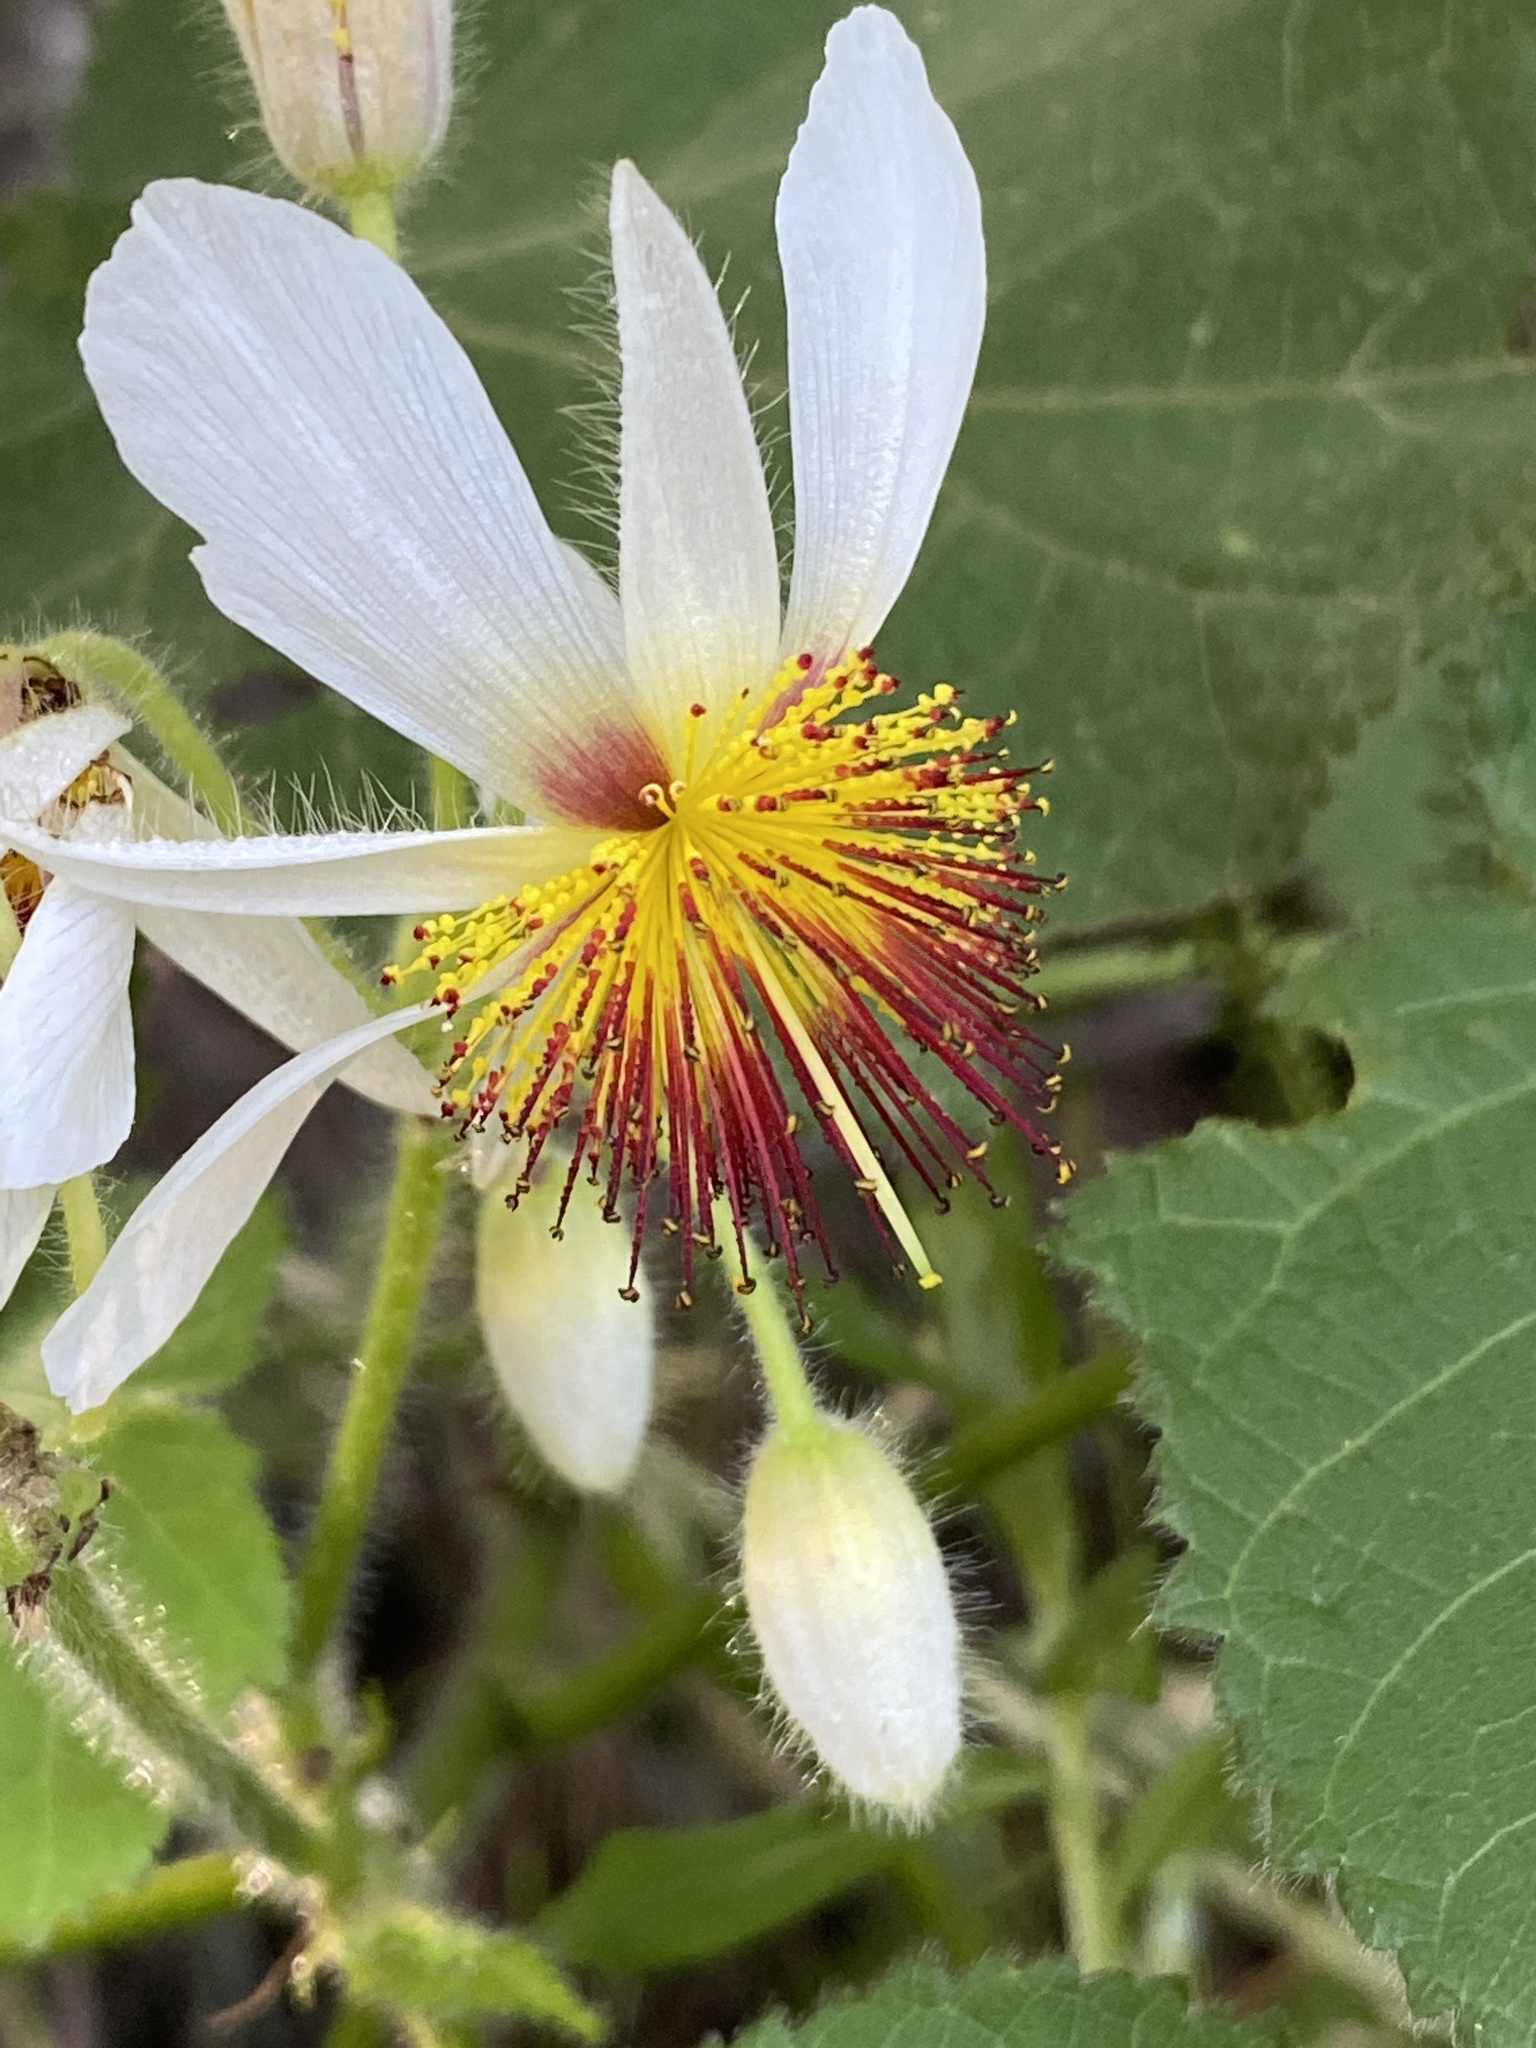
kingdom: Plantae
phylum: Tracheophyta
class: Magnoliopsida
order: Malvales
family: Malvaceae
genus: Sparrmannia
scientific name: Sparrmannia africana
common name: African-hemp
